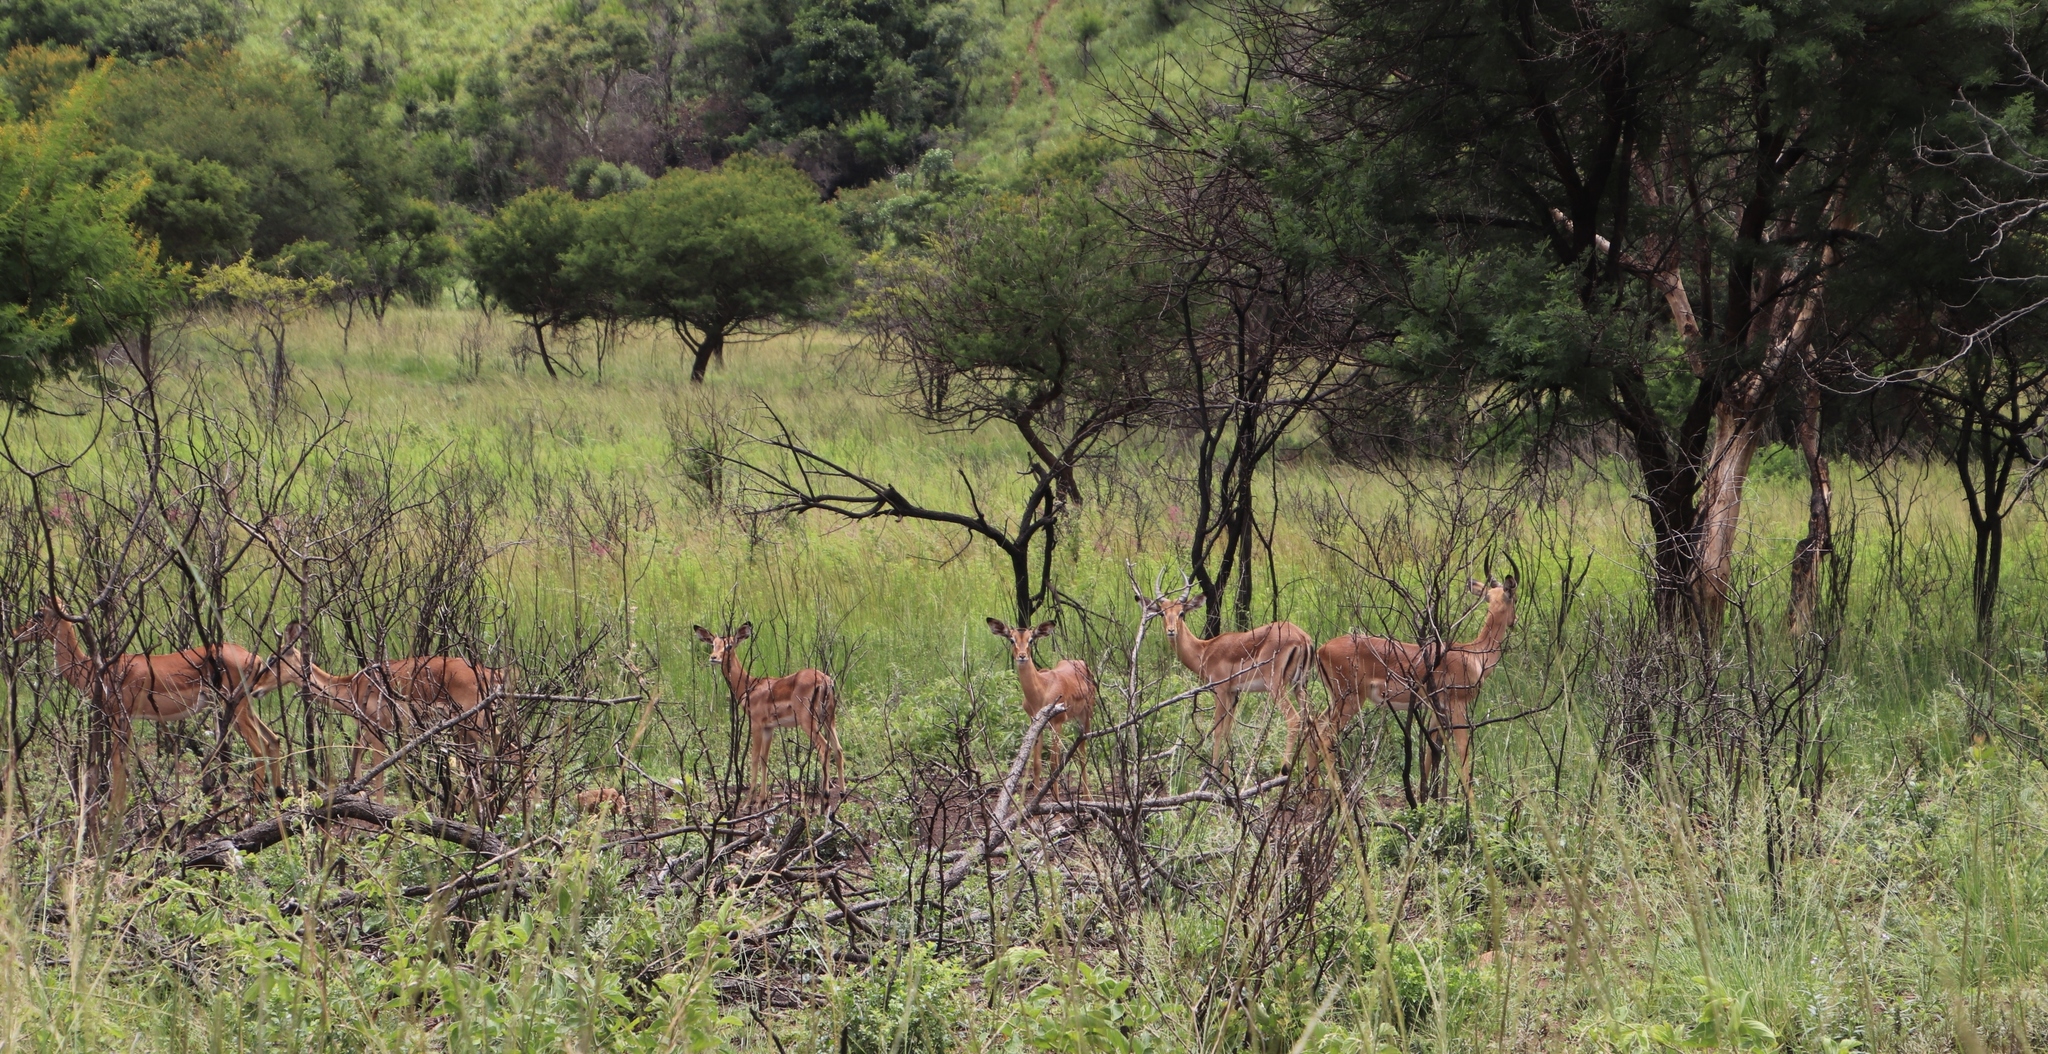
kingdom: Animalia
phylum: Chordata
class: Mammalia
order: Artiodactyla
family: Bovidae
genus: Aepyceros
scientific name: Aepyceros melampus
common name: Impala
